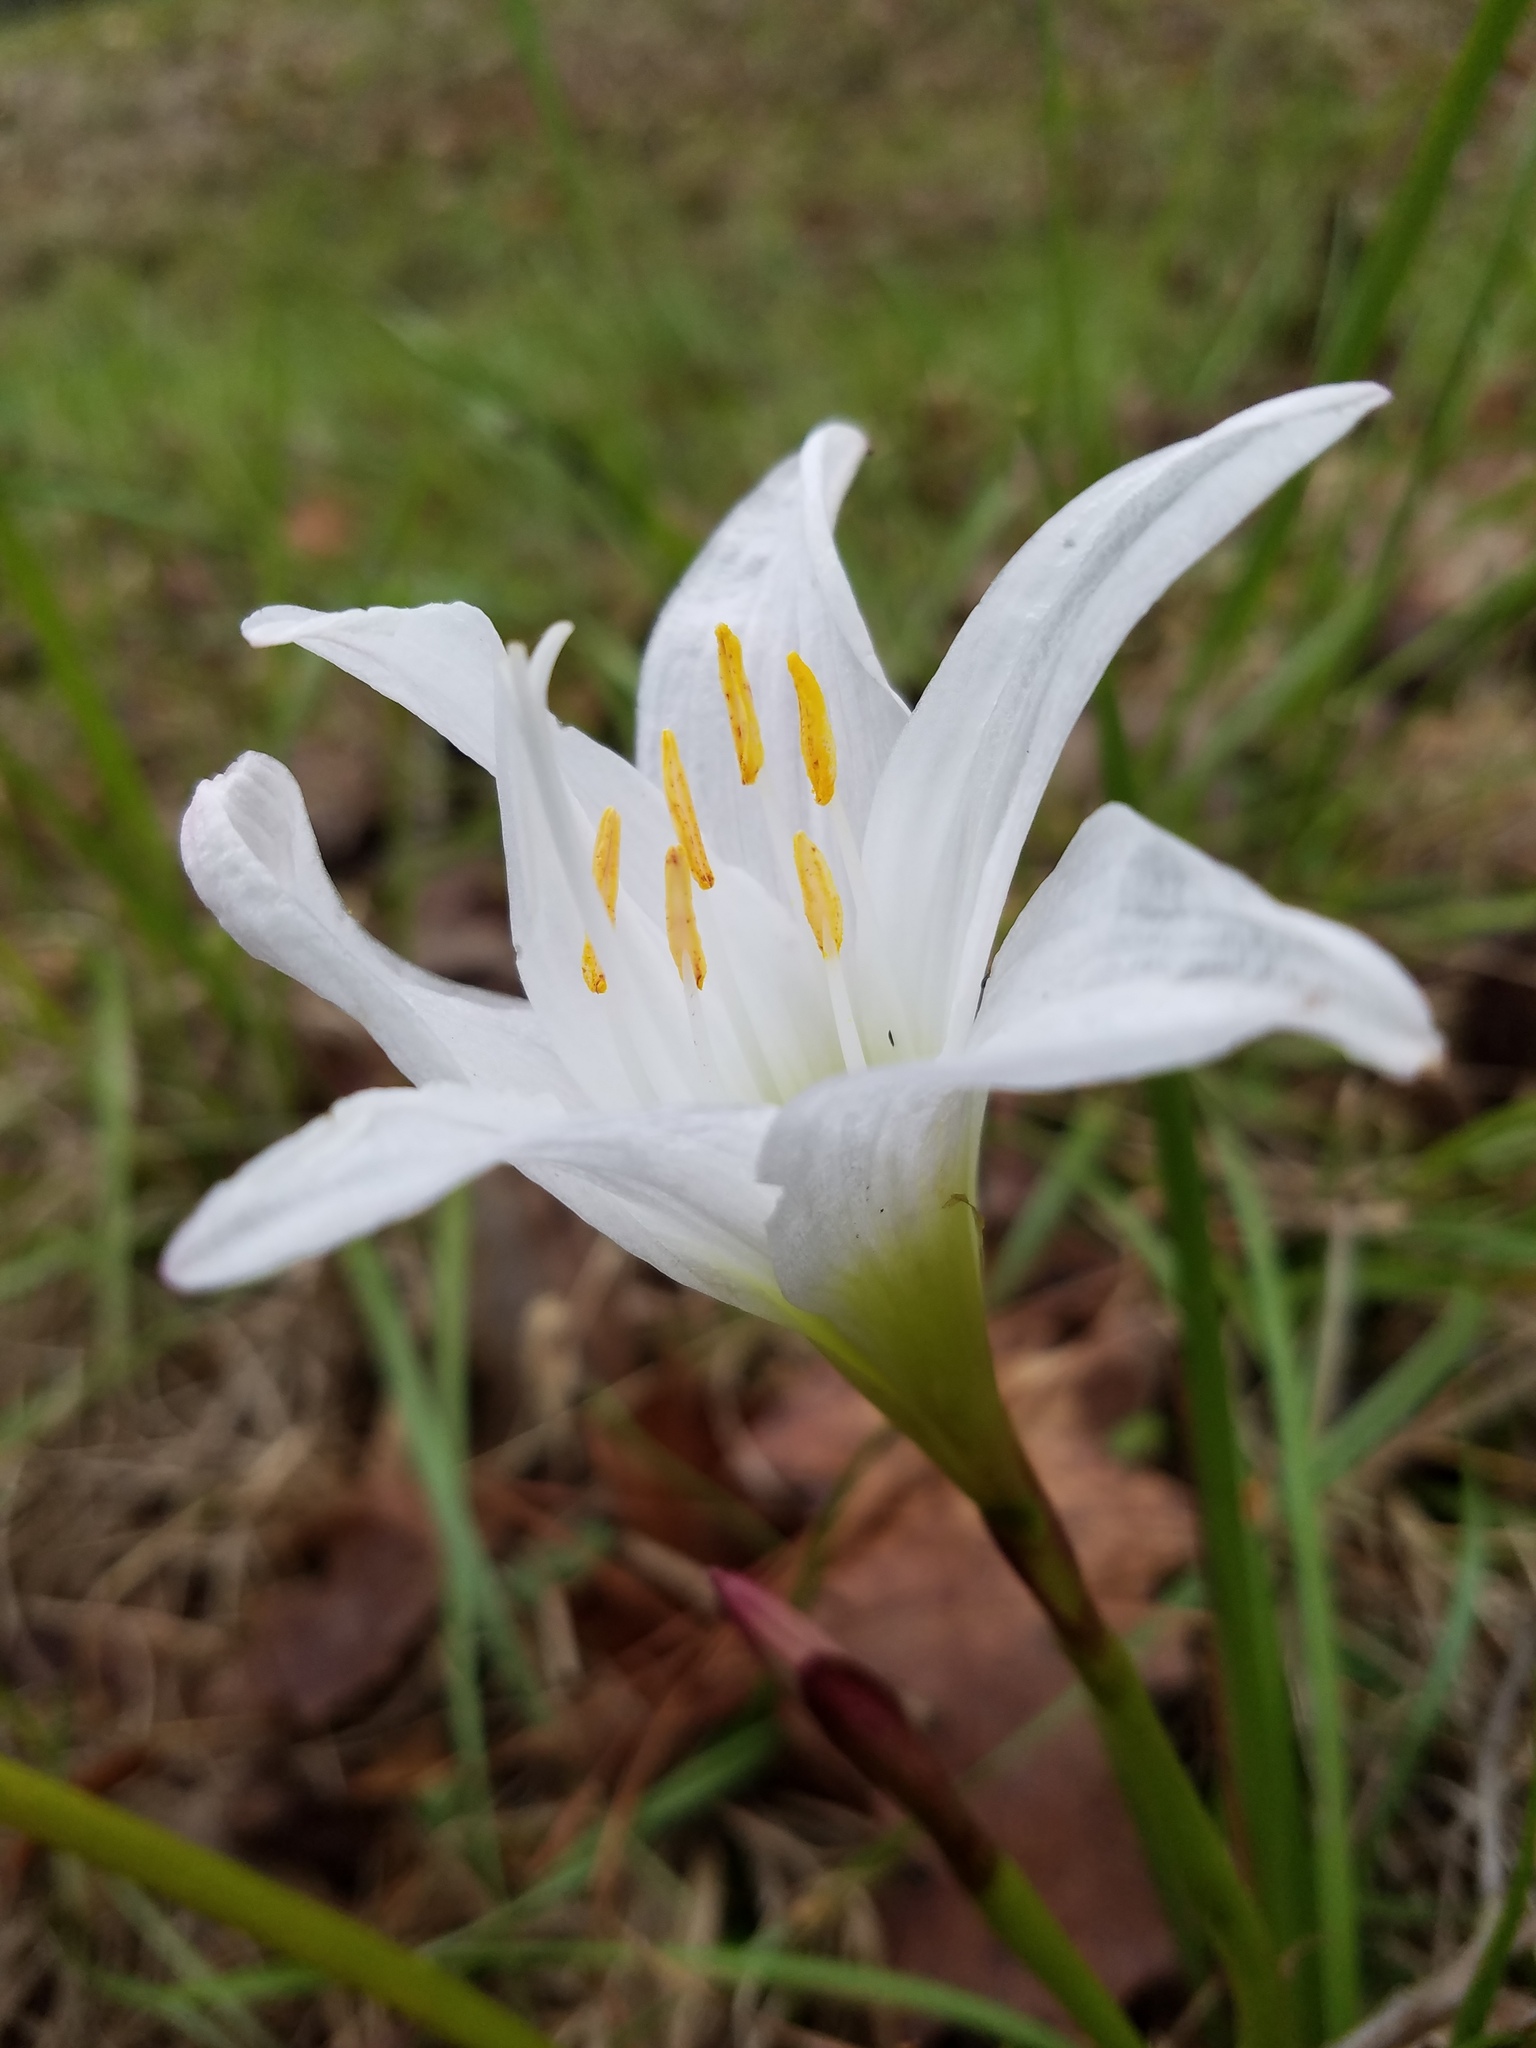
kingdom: Plantae
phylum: Tracheophyta
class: Liliopsida
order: Asparagales
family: Amaryllidaceae
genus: Zephyranthes
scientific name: Zephyranthes atamasco
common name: Atamasco lily
